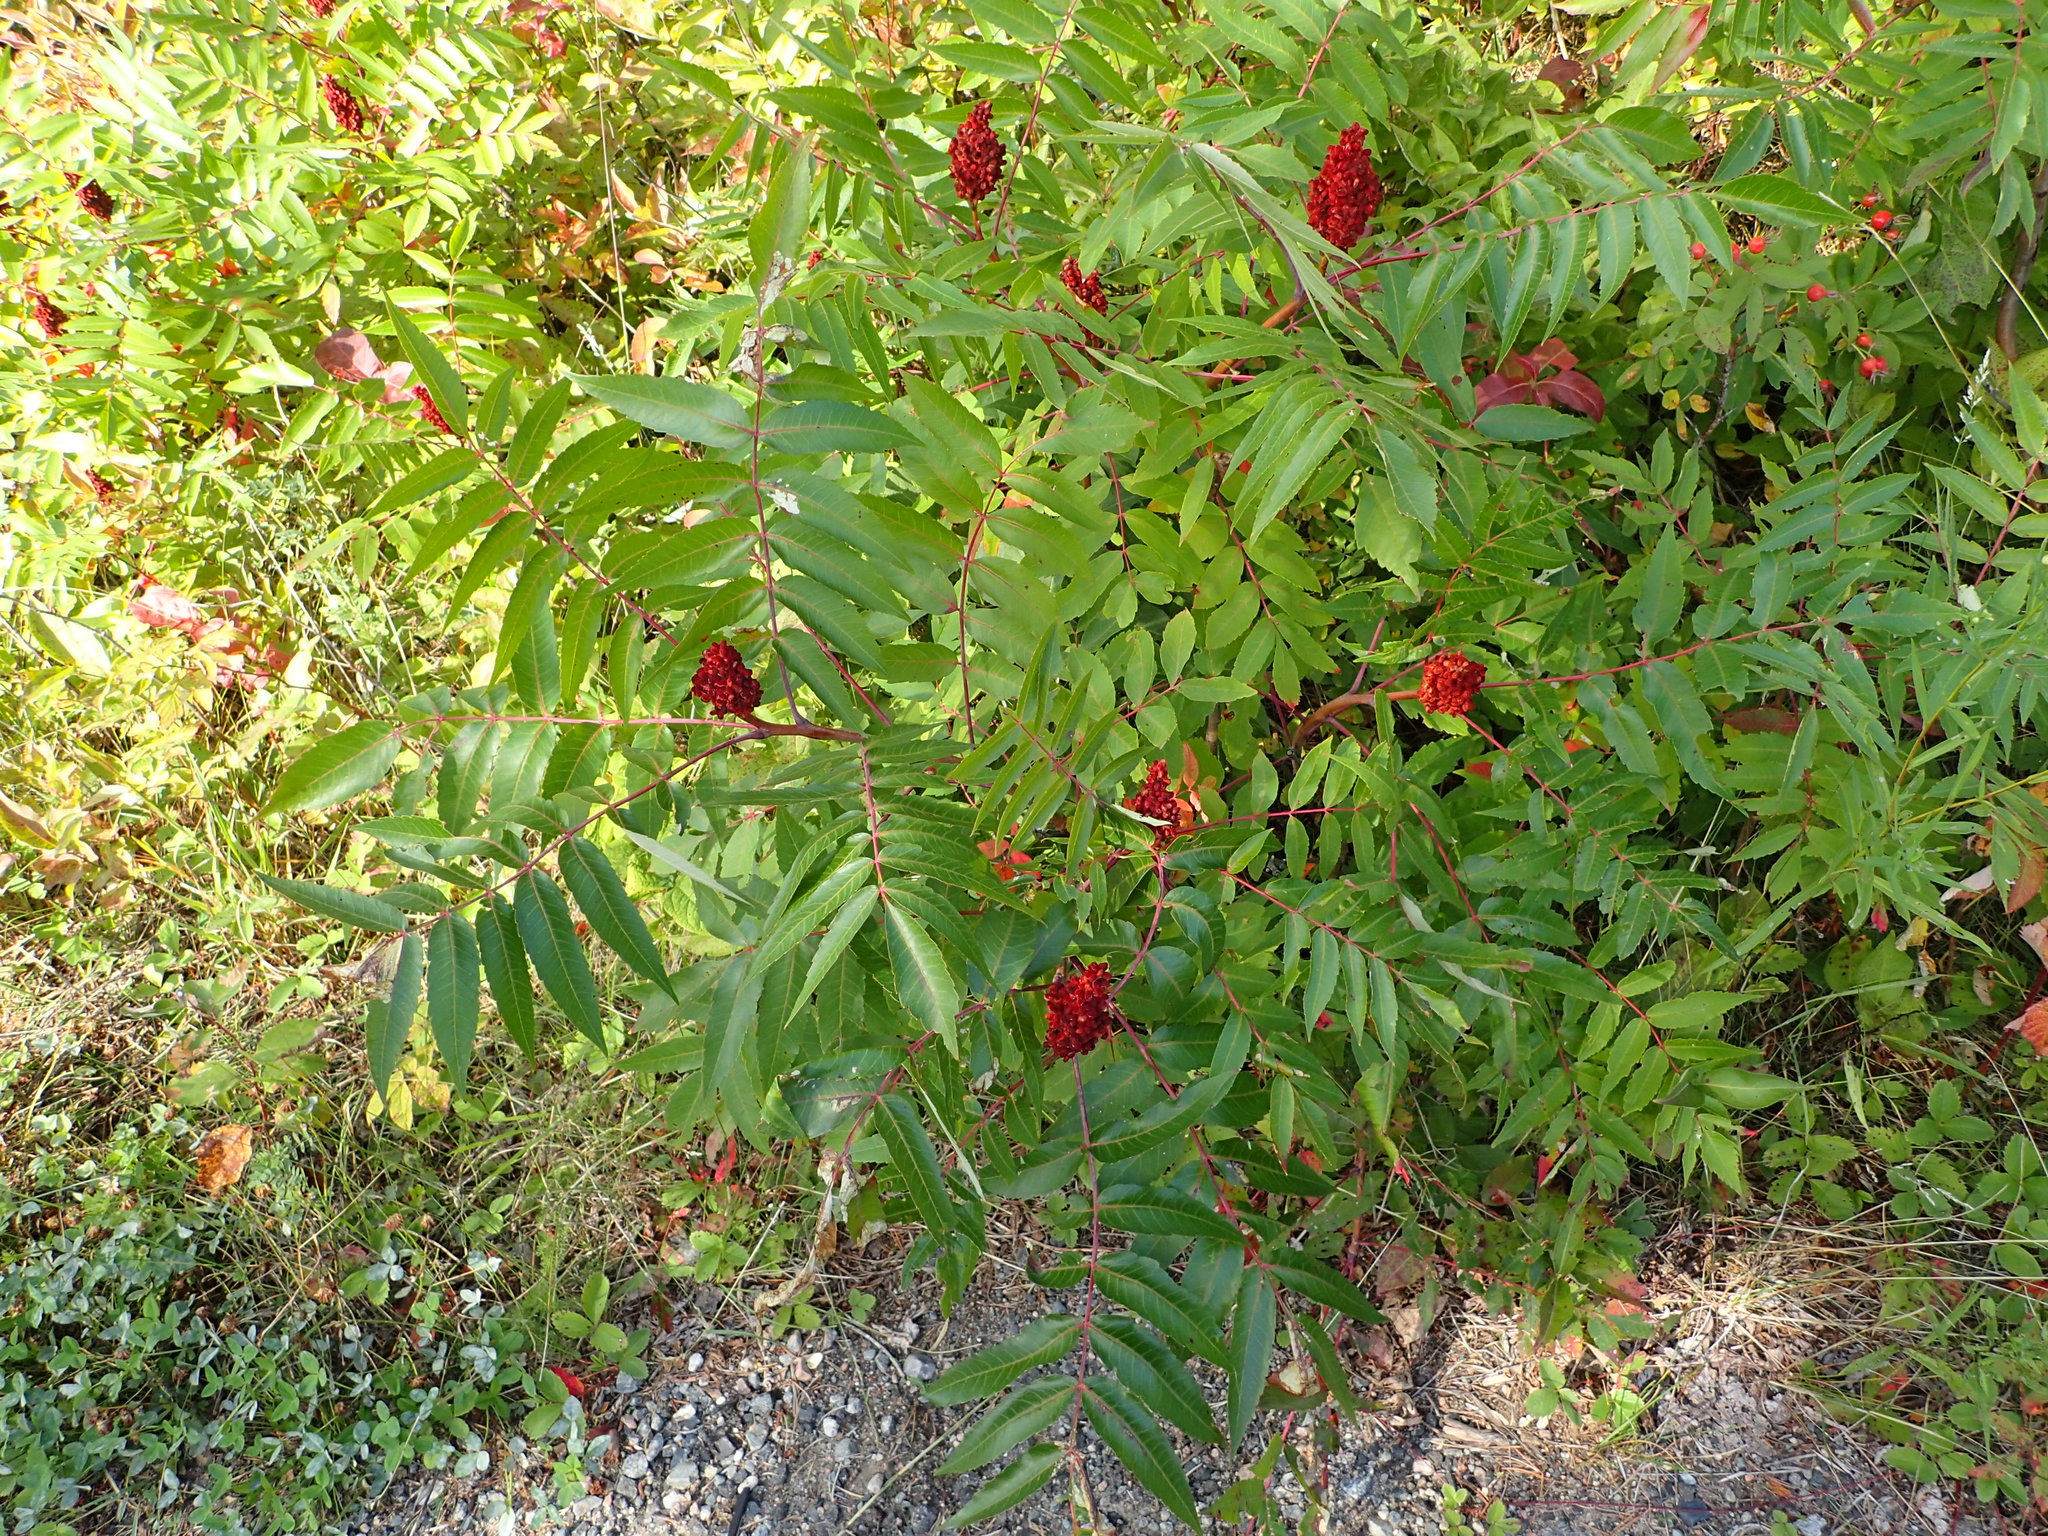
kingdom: Plantae
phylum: Tracheophyta
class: Magnoliopsida
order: Sapindales
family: Anacardiaceae
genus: Rhus
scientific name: Rhus glabra
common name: Scarlet sumac
